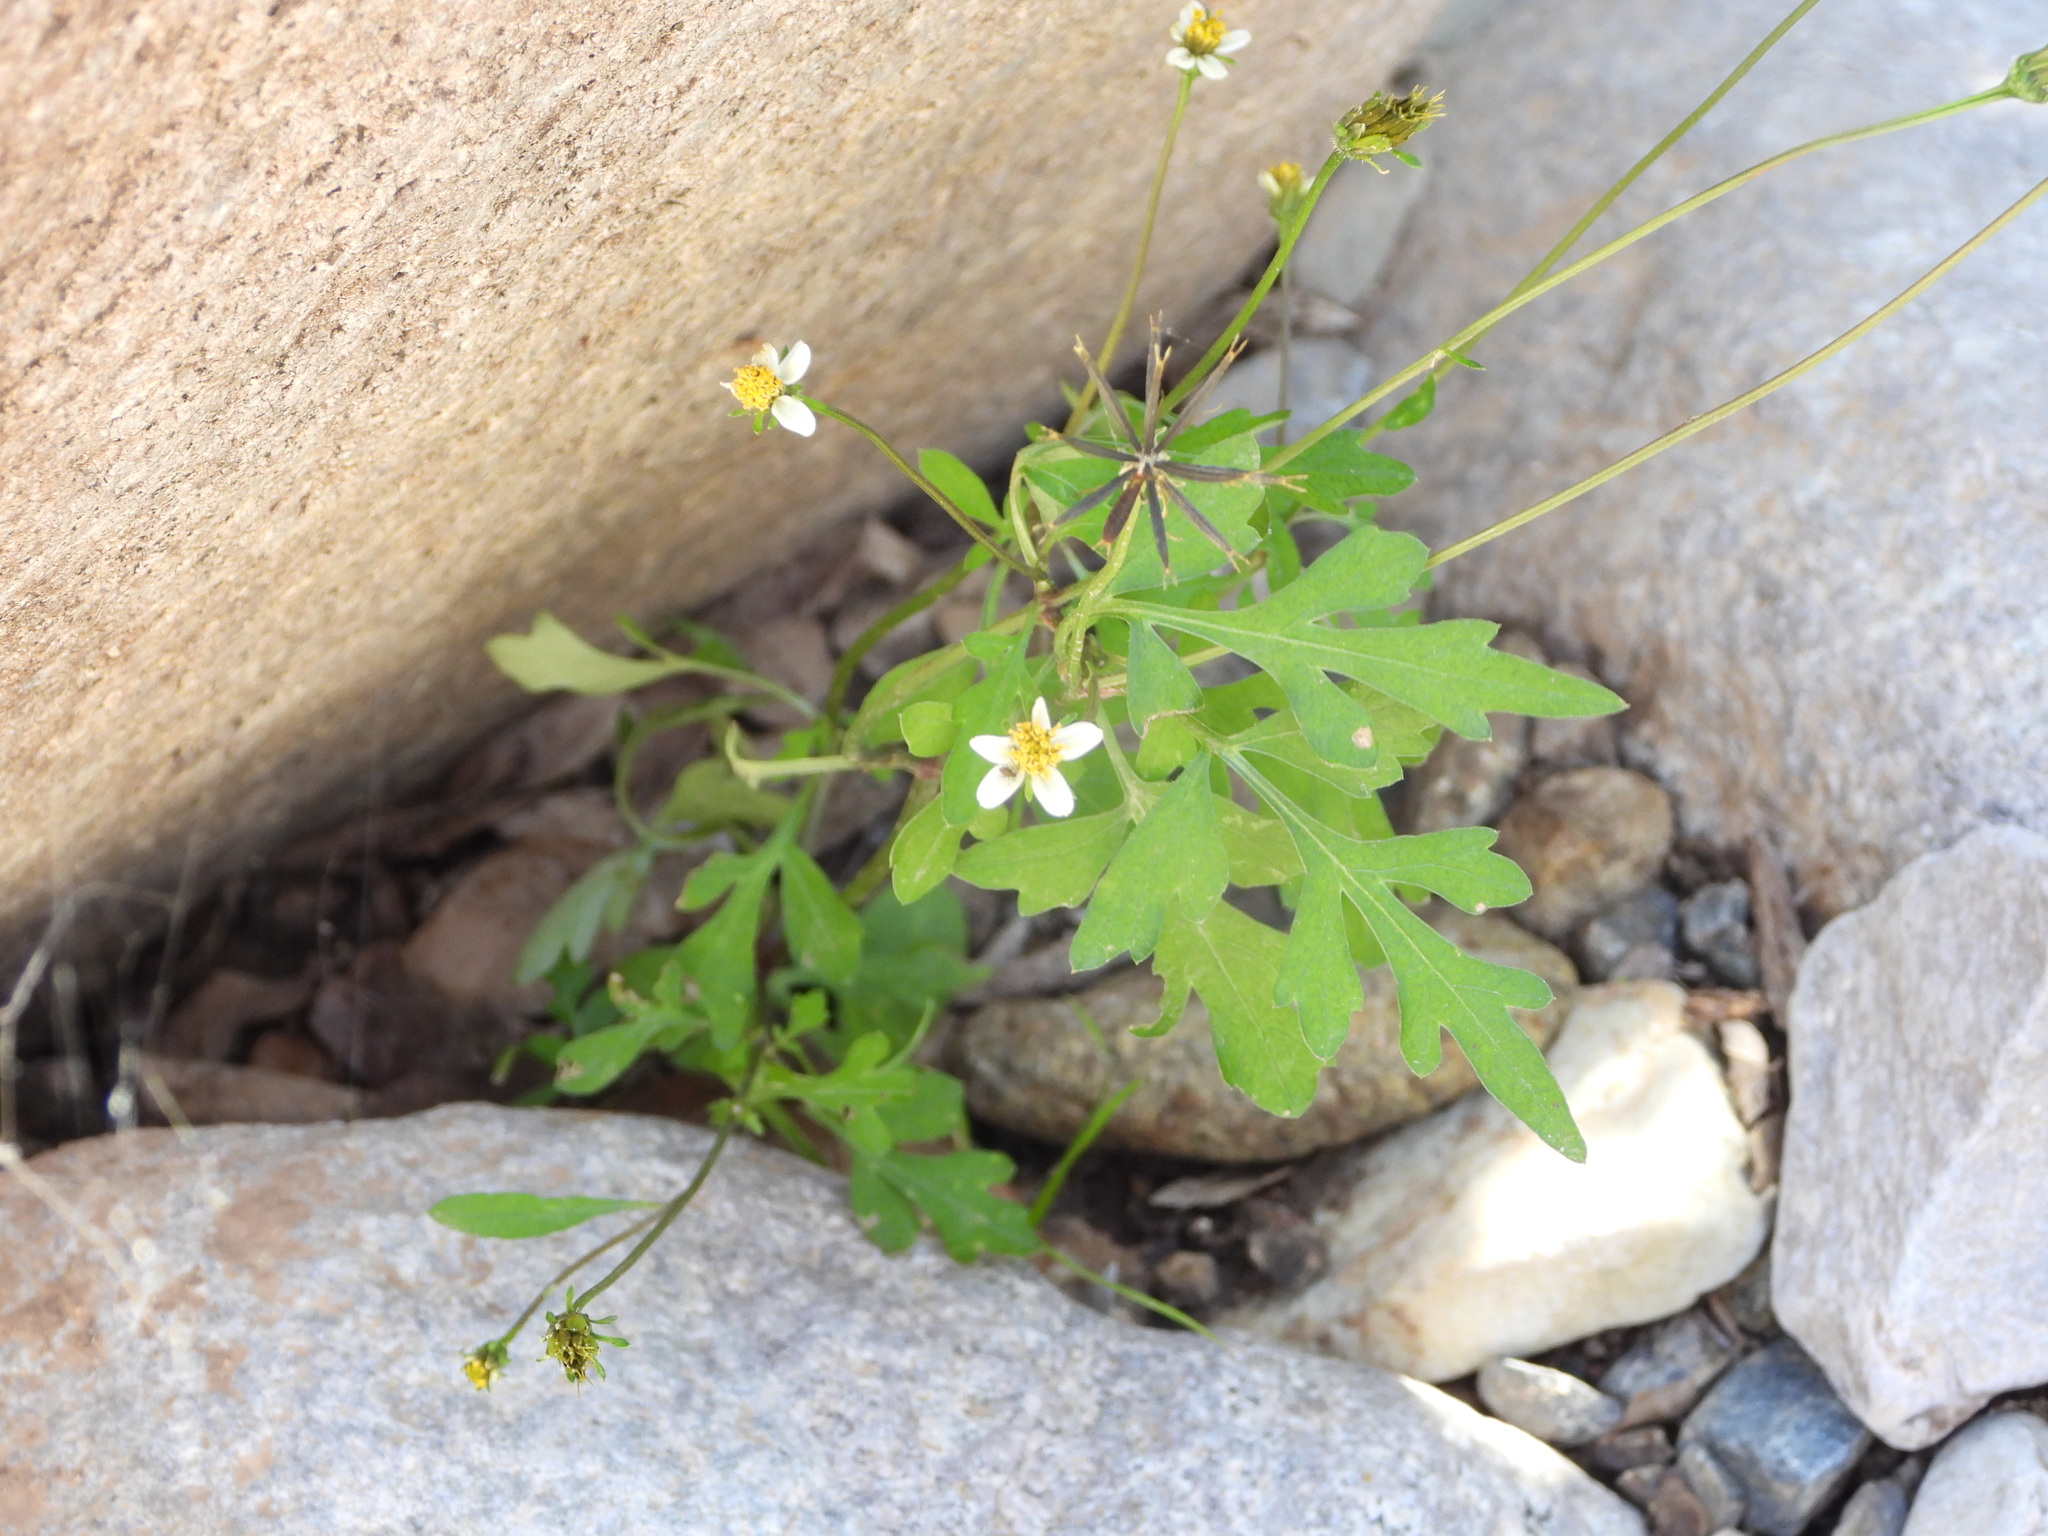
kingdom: Plantae
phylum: Tracheophyta
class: Magnoliopsida
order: Asterales
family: Asteraceae
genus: Bidens
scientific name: Bidens bigelovii
